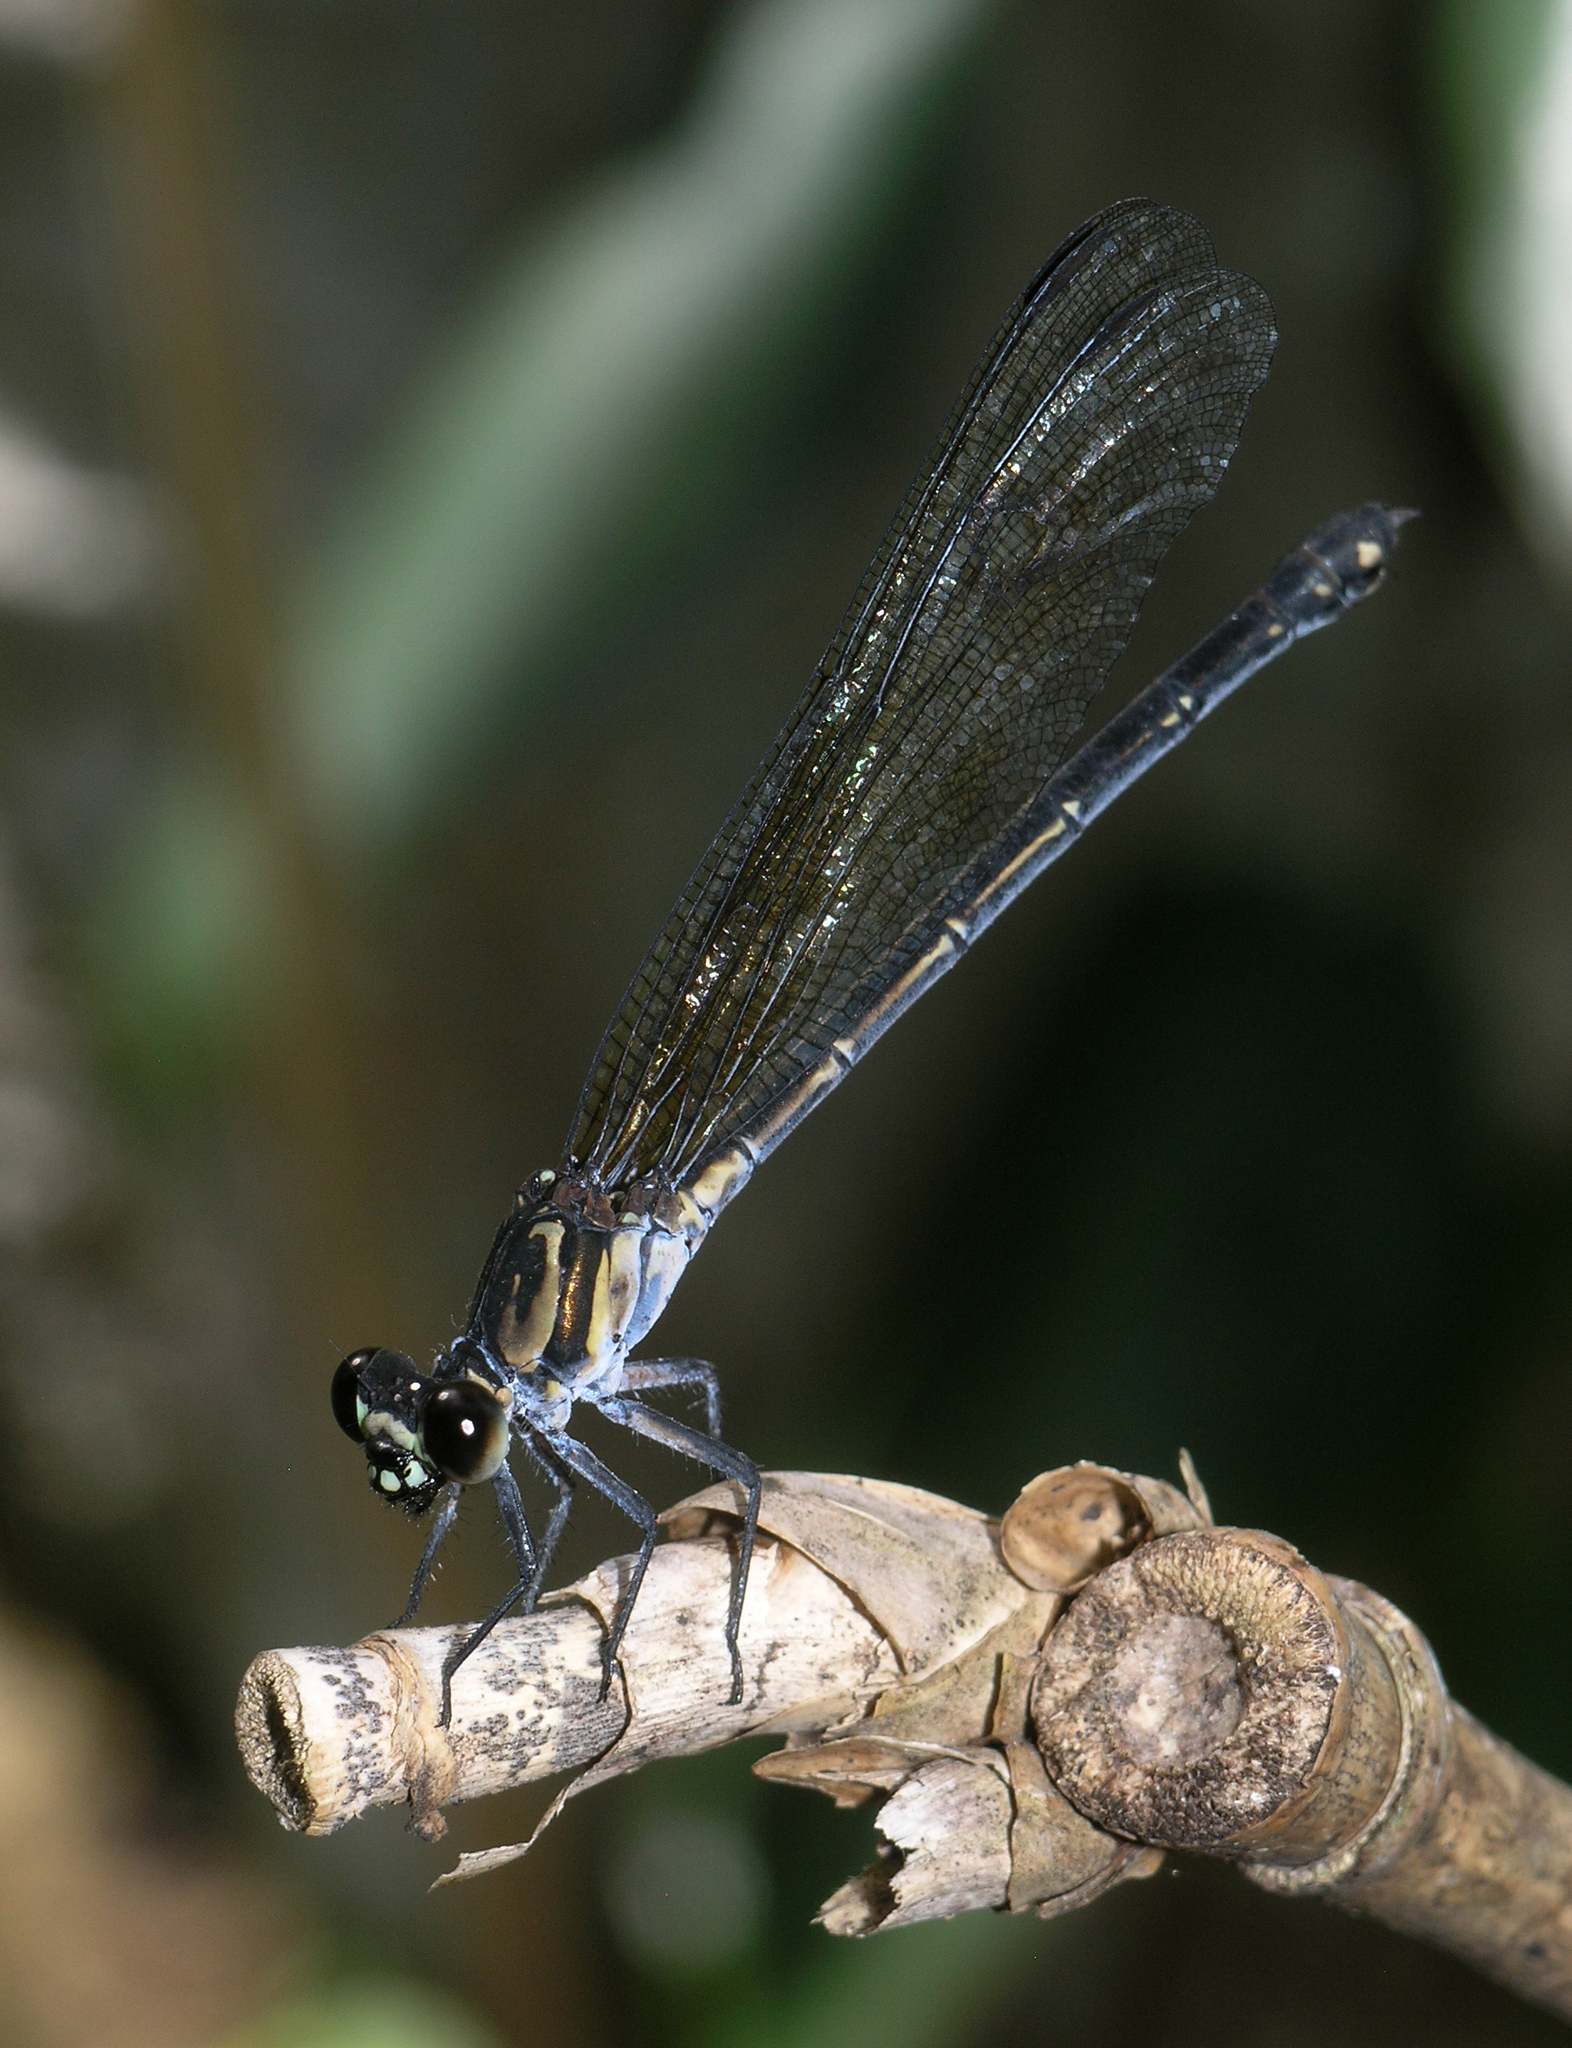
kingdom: Animalia
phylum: Arthropoda
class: Insecta
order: Odonata
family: Euphaeidae
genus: Euphaea
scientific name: Euphaea lara
